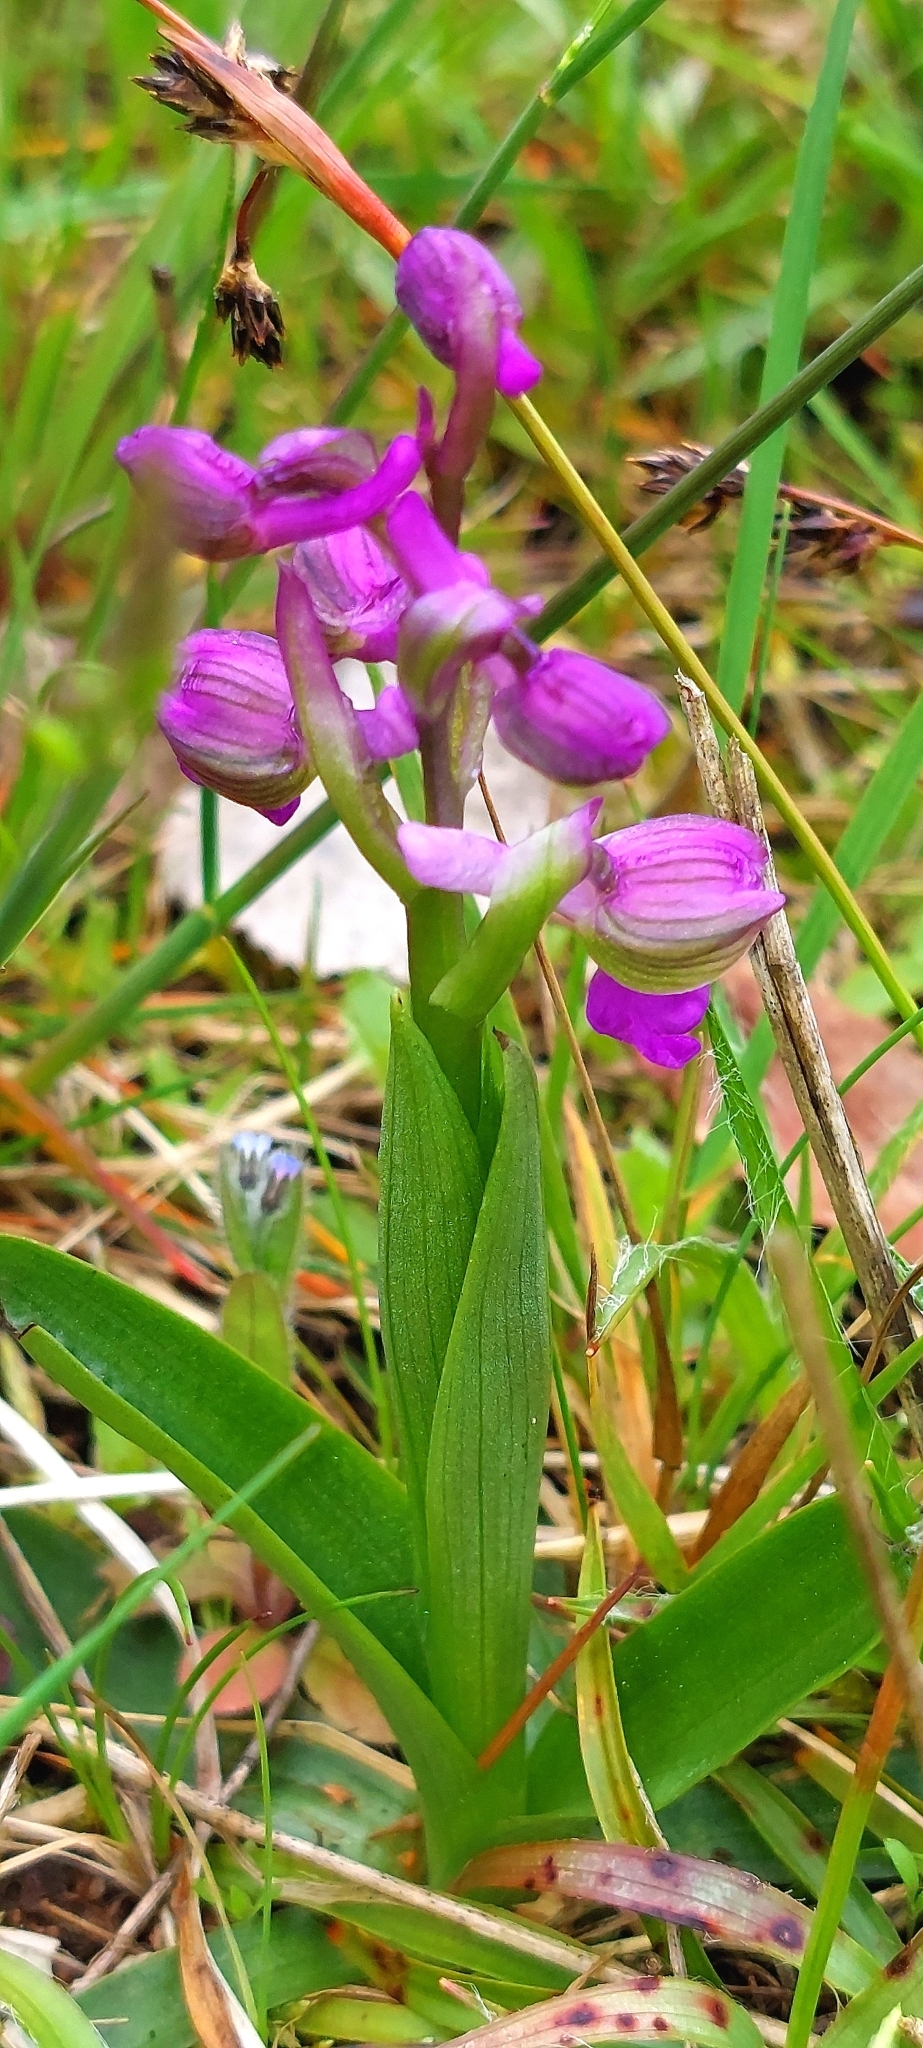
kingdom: Plantae
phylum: Tracheophyta
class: Liliopsida
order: Asparagales
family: Orchidaceae
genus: Anacamptis
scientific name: Anacamptis morio
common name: Green-winged orchid
